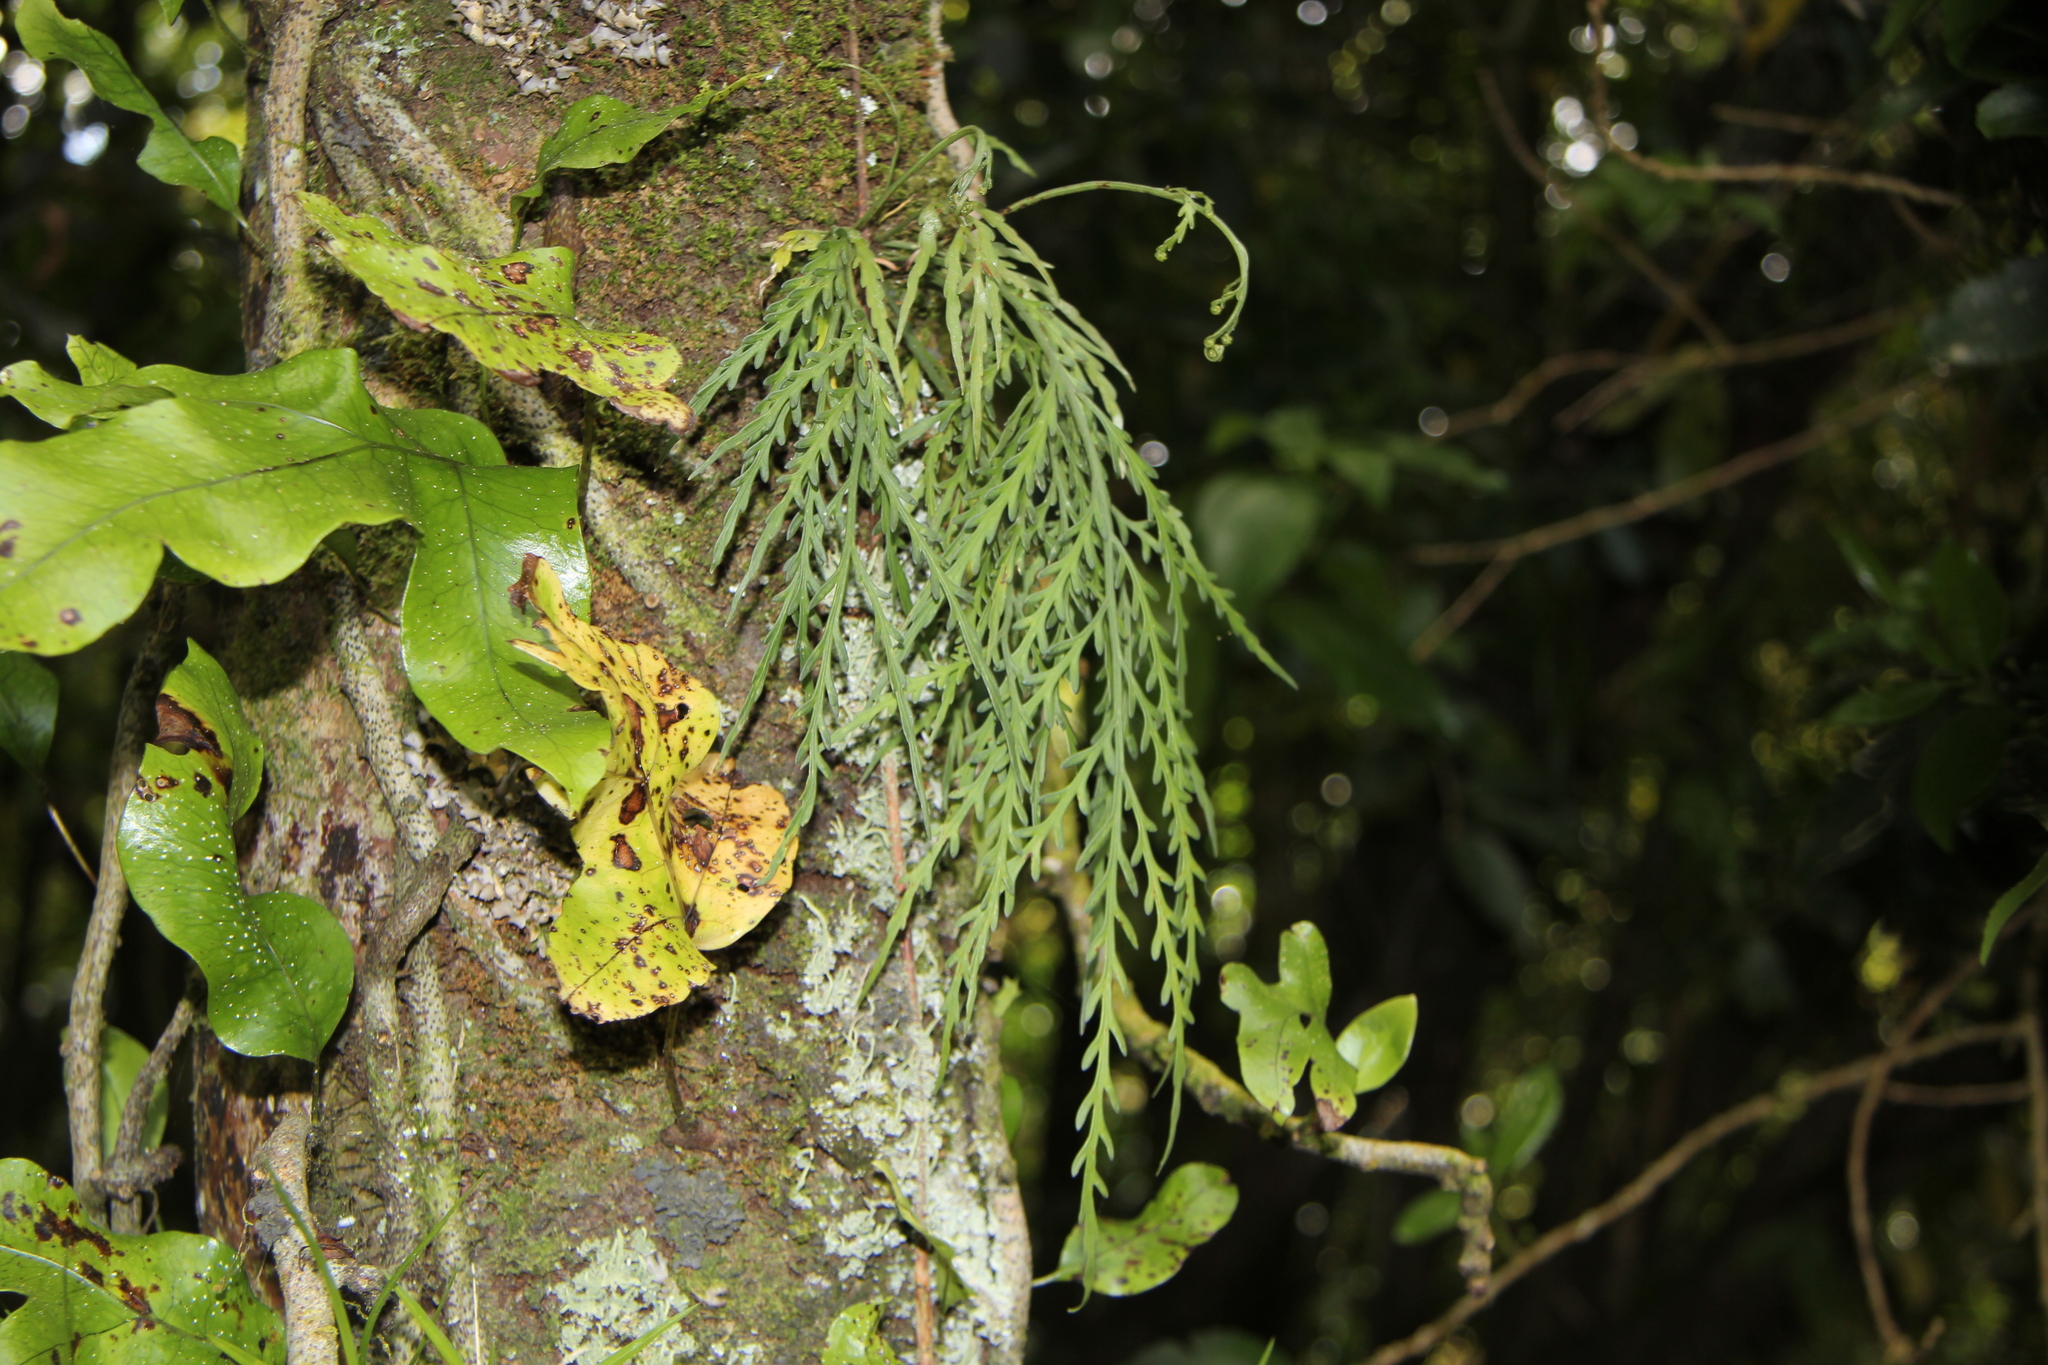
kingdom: Plantae
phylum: Tracheophyta
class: Polypodiopsida
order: Polypodiales
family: Aspleniaceae
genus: Asplenium
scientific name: Asplenium flaccidum
